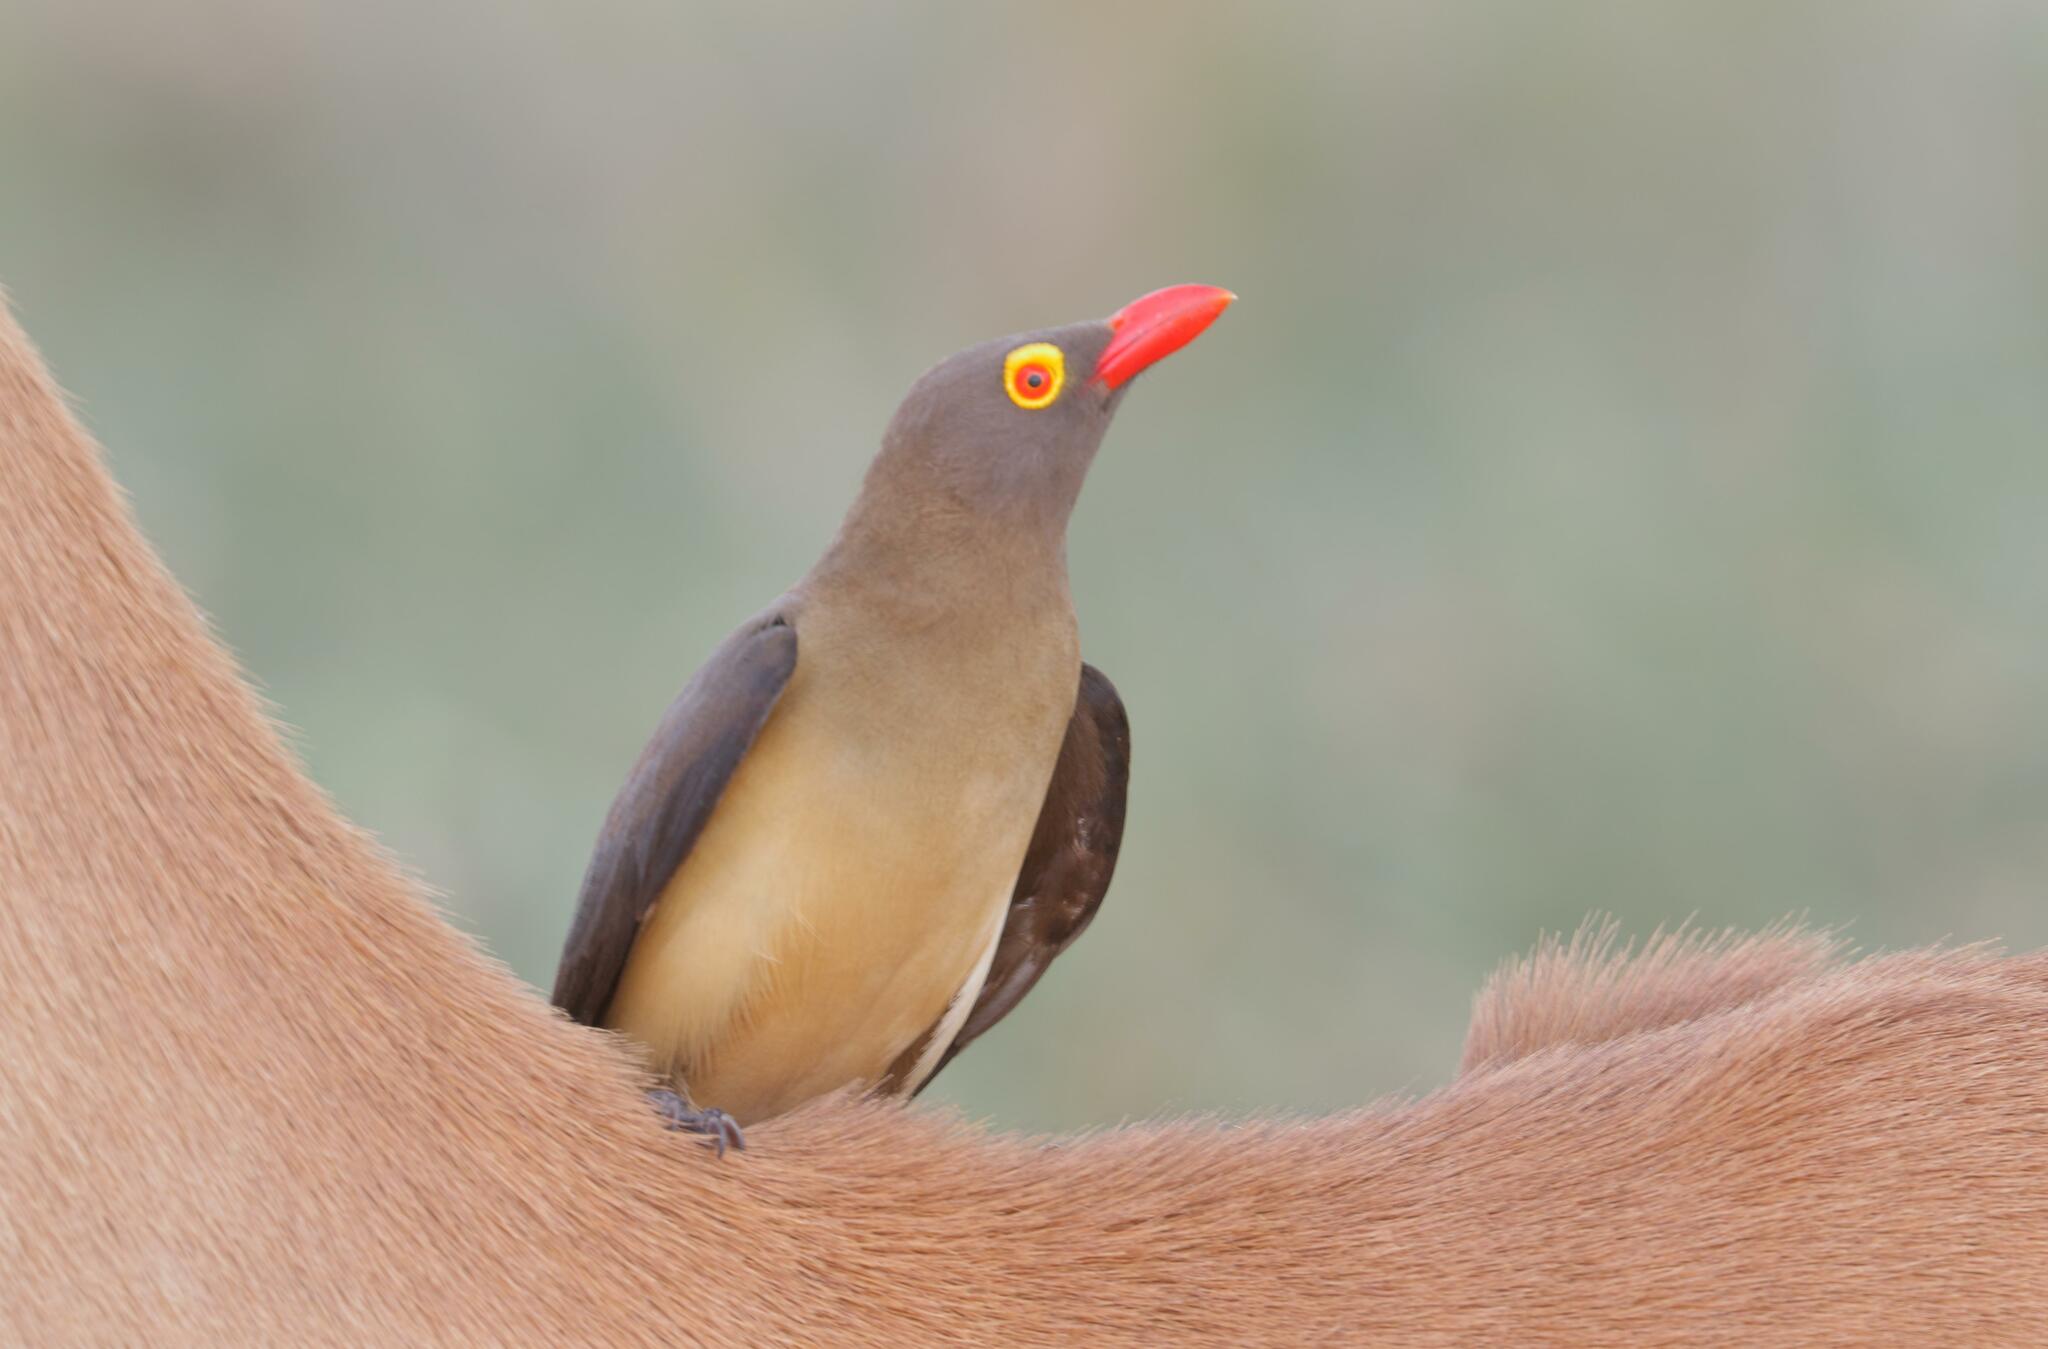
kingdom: Animalia
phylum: Chordata
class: Aves
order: Passeriformes
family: Buphagidae
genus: Buphagus
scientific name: Buphagus erythrorhynchus
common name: Red-billed oxpecker
